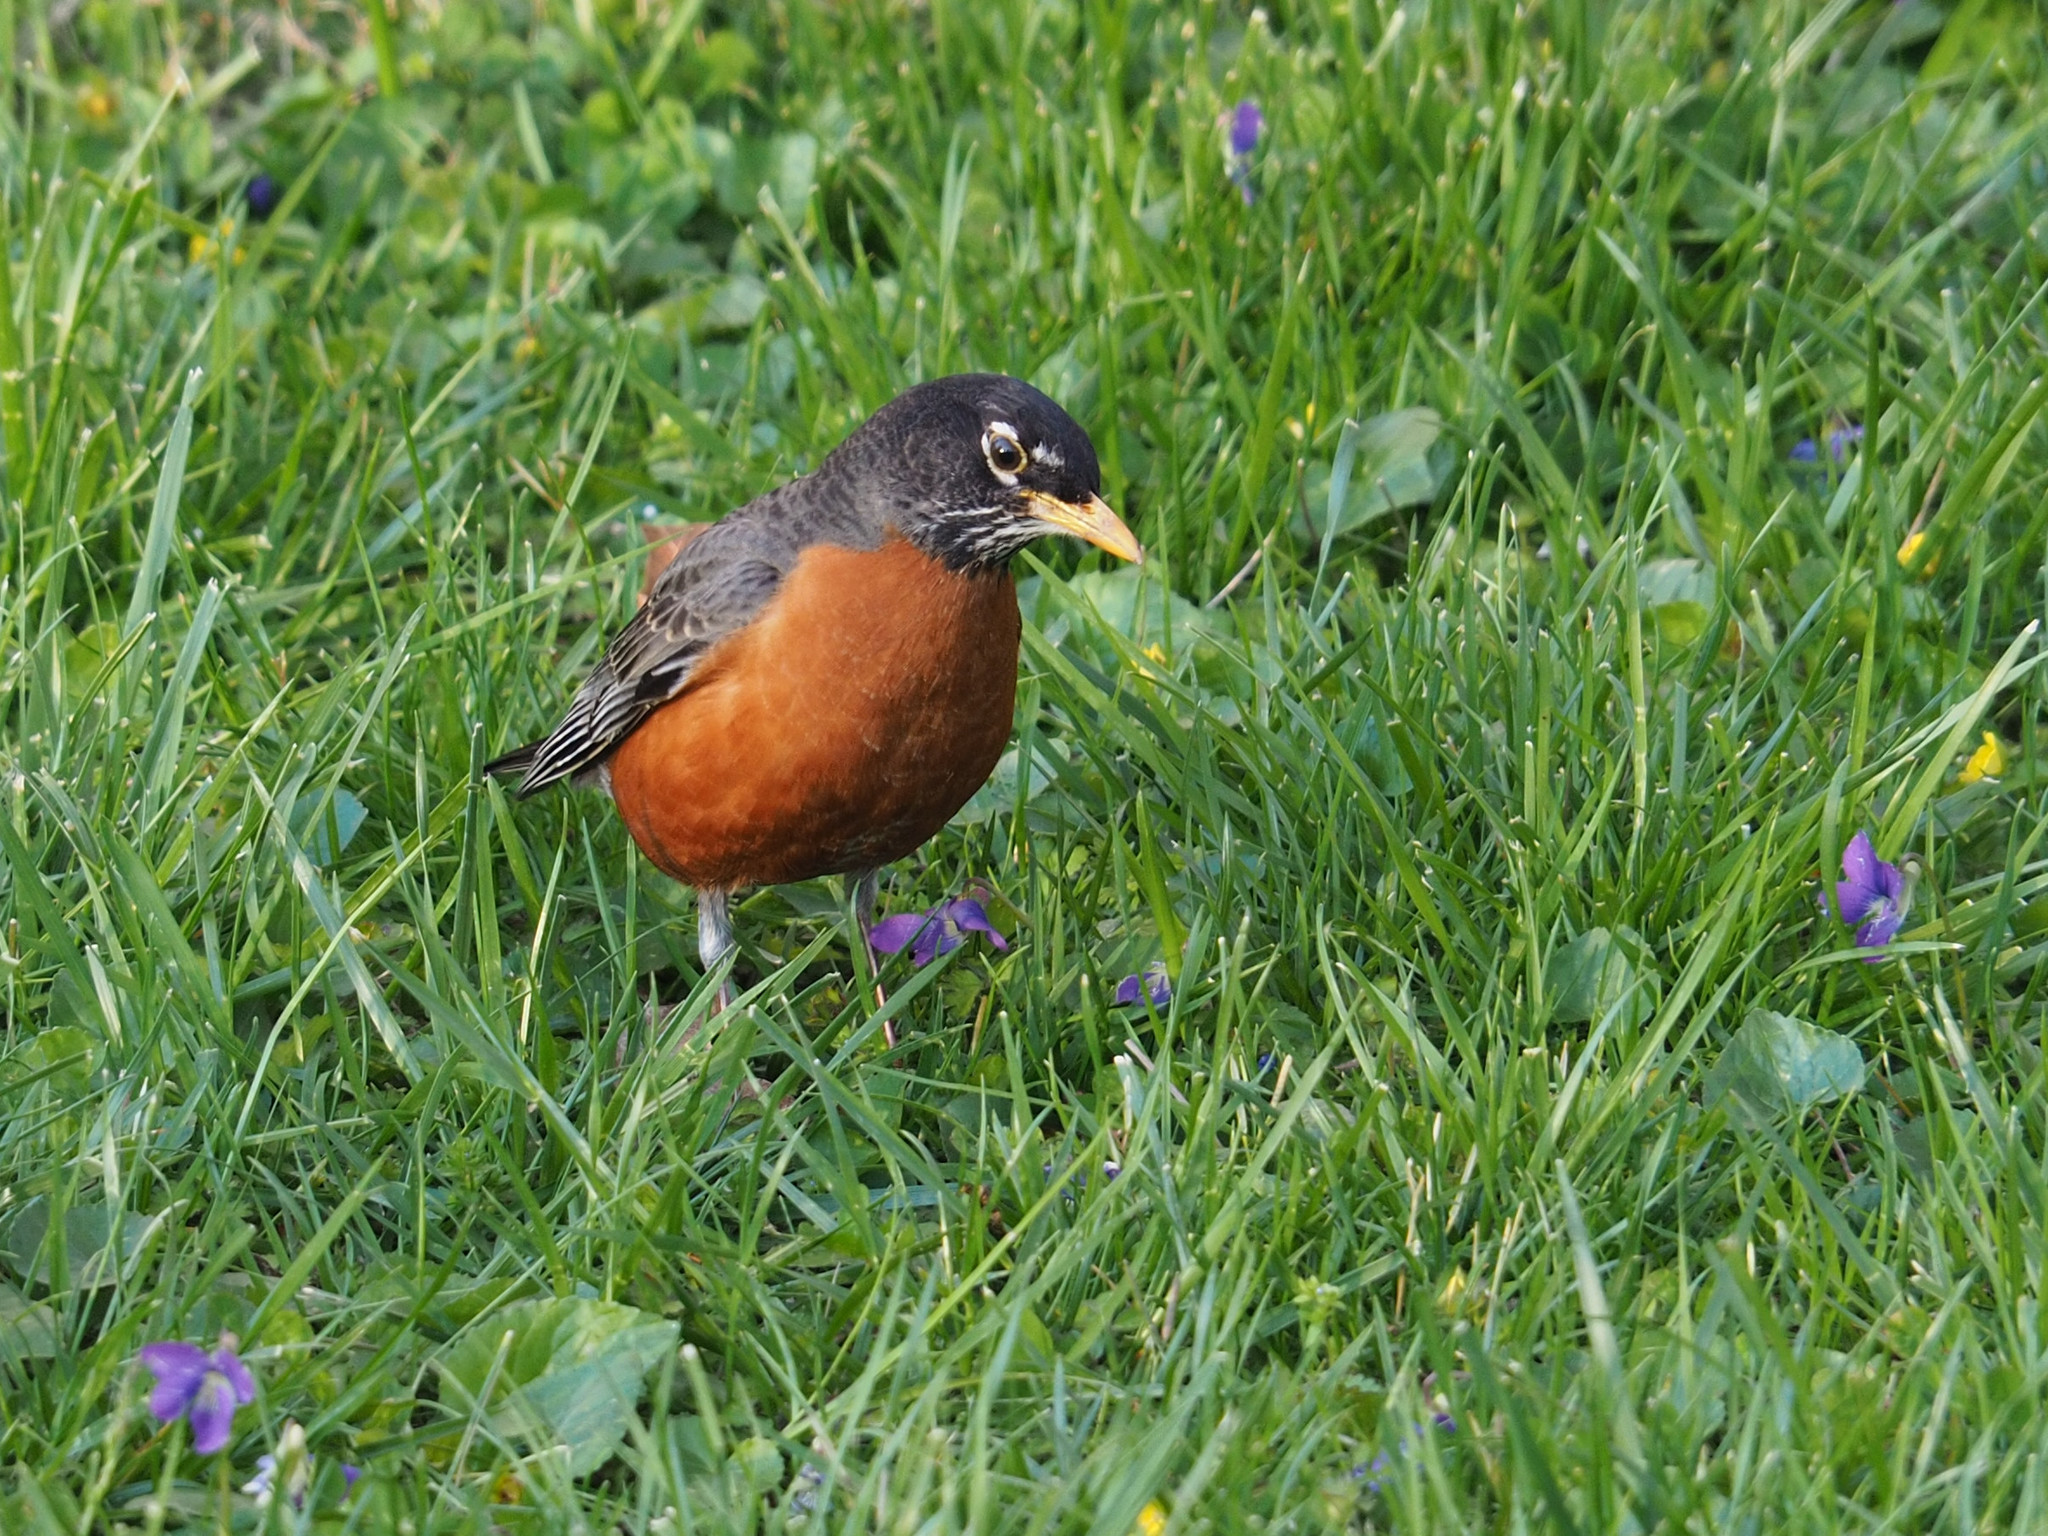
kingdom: Animalia
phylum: Chordata
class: Aves
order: Passeriformes
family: Turdidae
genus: Turdus
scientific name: Turdus migratorius
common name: American robin
